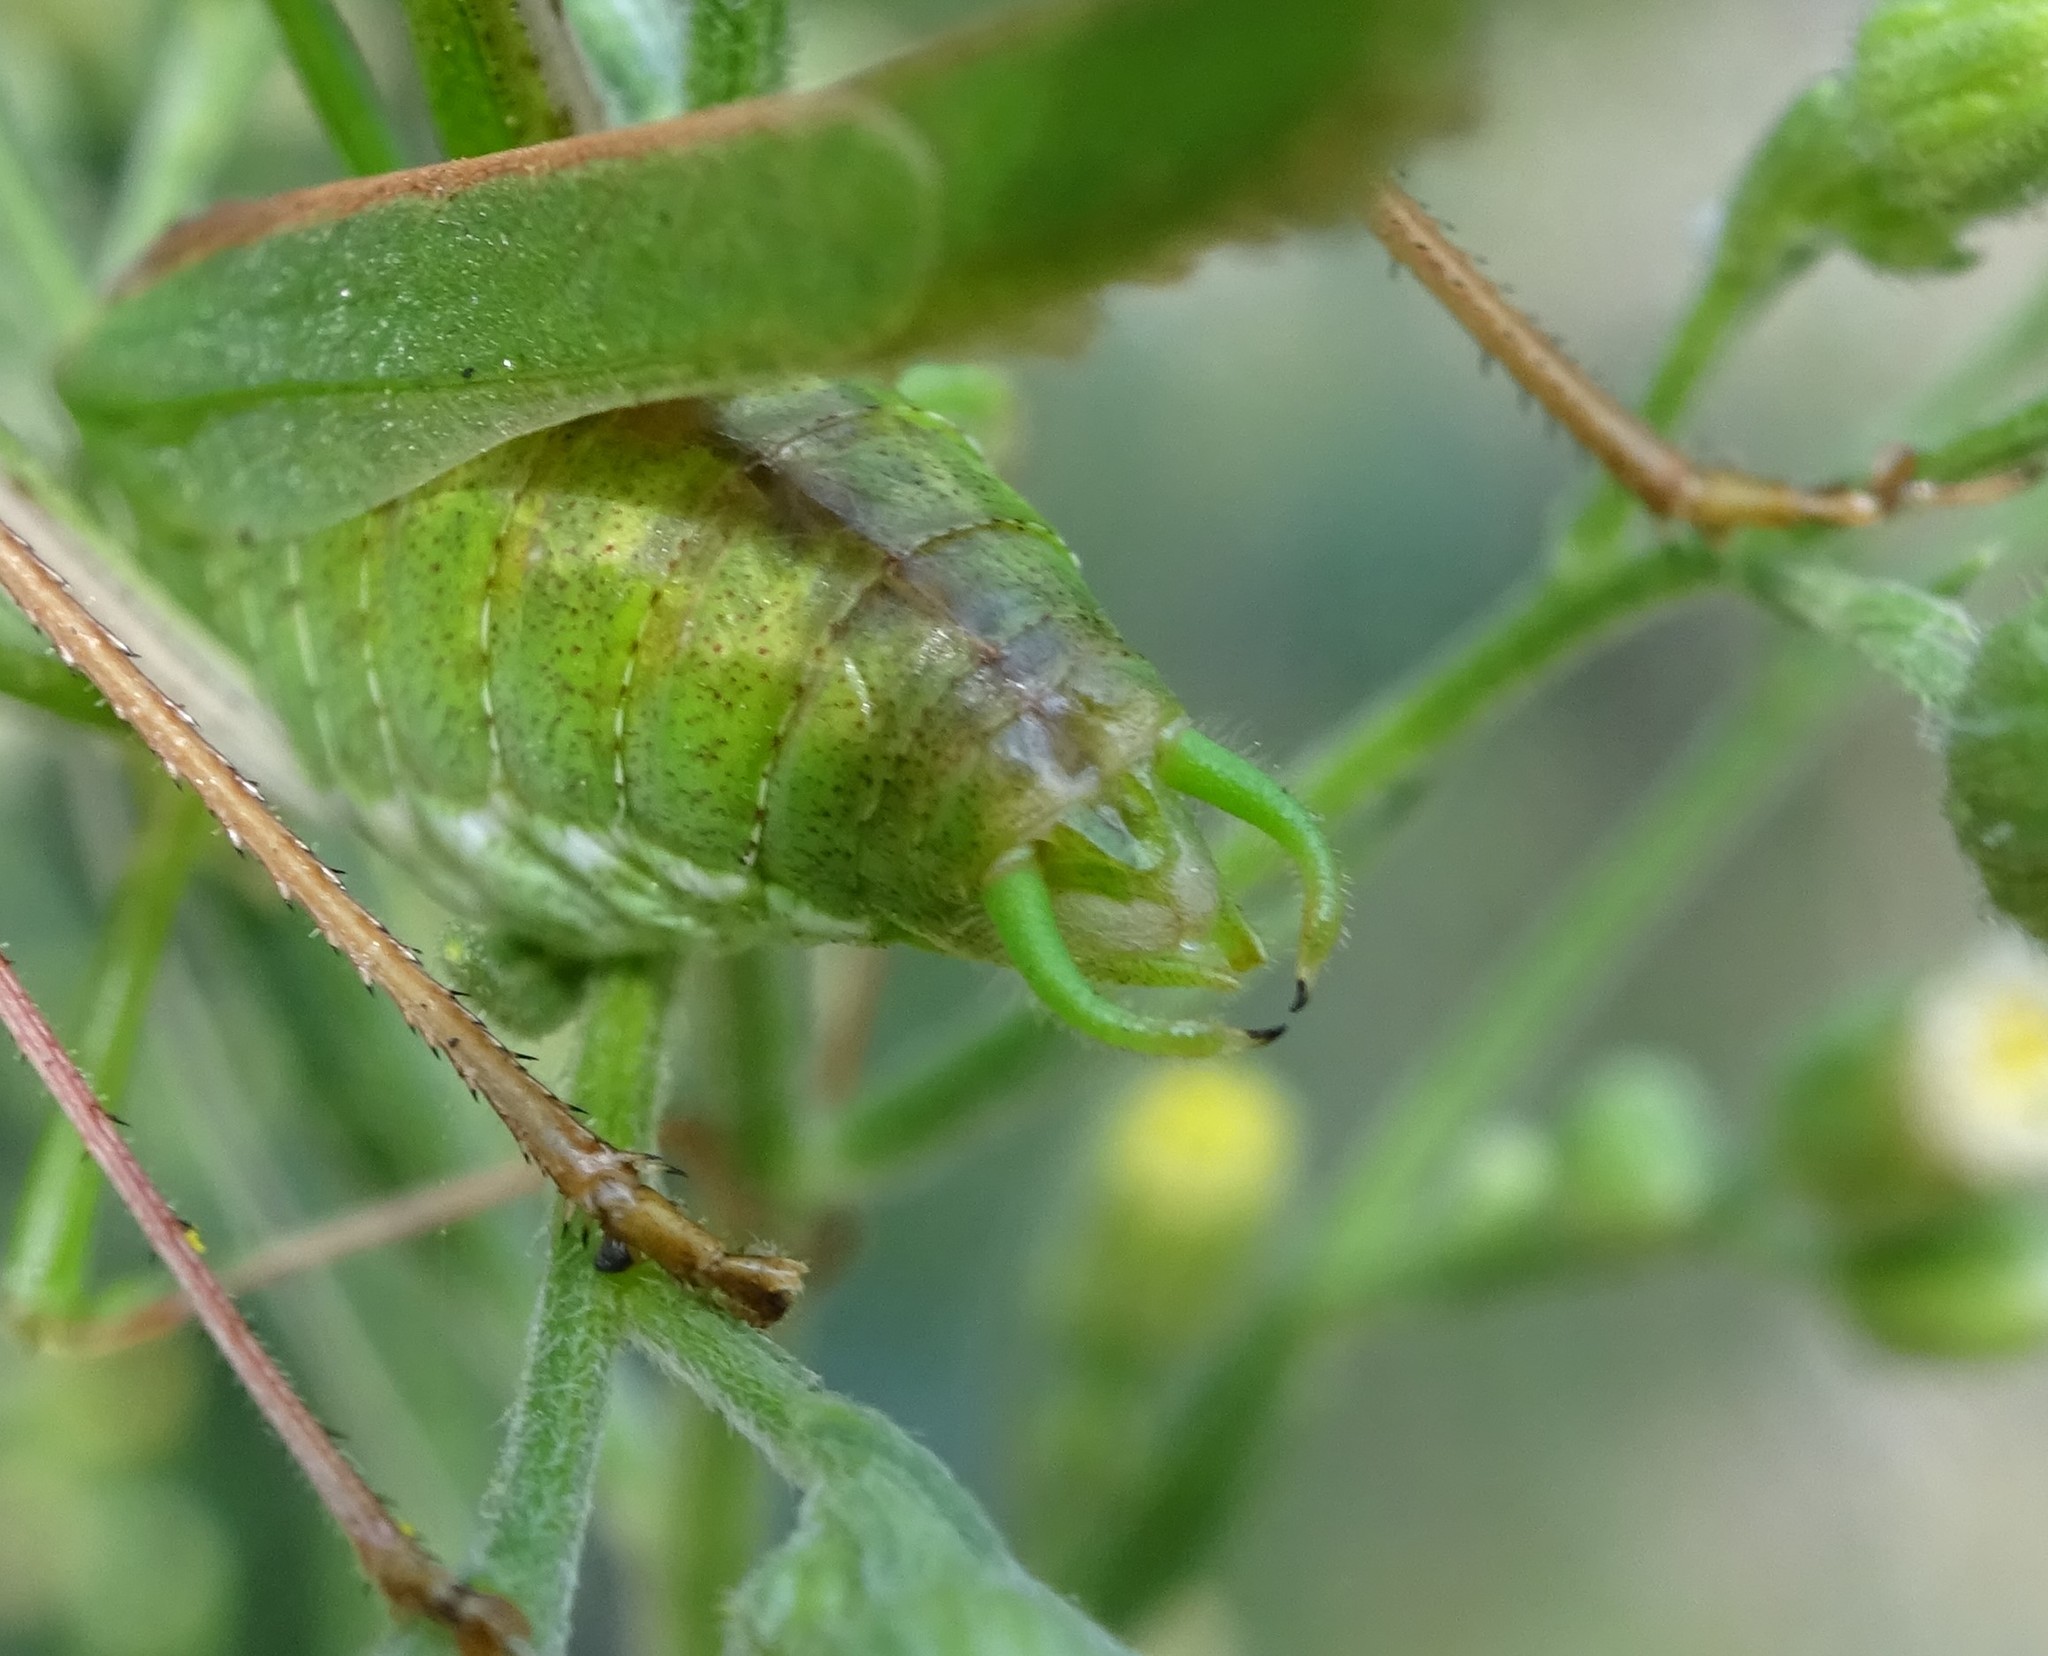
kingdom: Animalia
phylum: Arthropoda
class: Insecta
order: Orthoptera
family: Tettigoniidae
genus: Tylopsis
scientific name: Tylopsis lilifolia
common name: Lily bush-cricket
